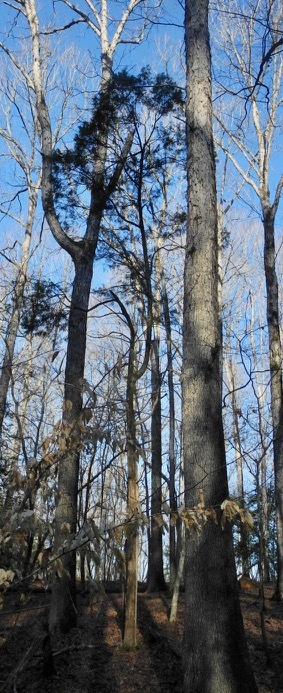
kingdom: Plantae
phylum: Tracheophyta
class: Pinopsida
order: Pinales
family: Cupressaceae
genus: Juniperus
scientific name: Juniperus virginiana
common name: Red juniper
